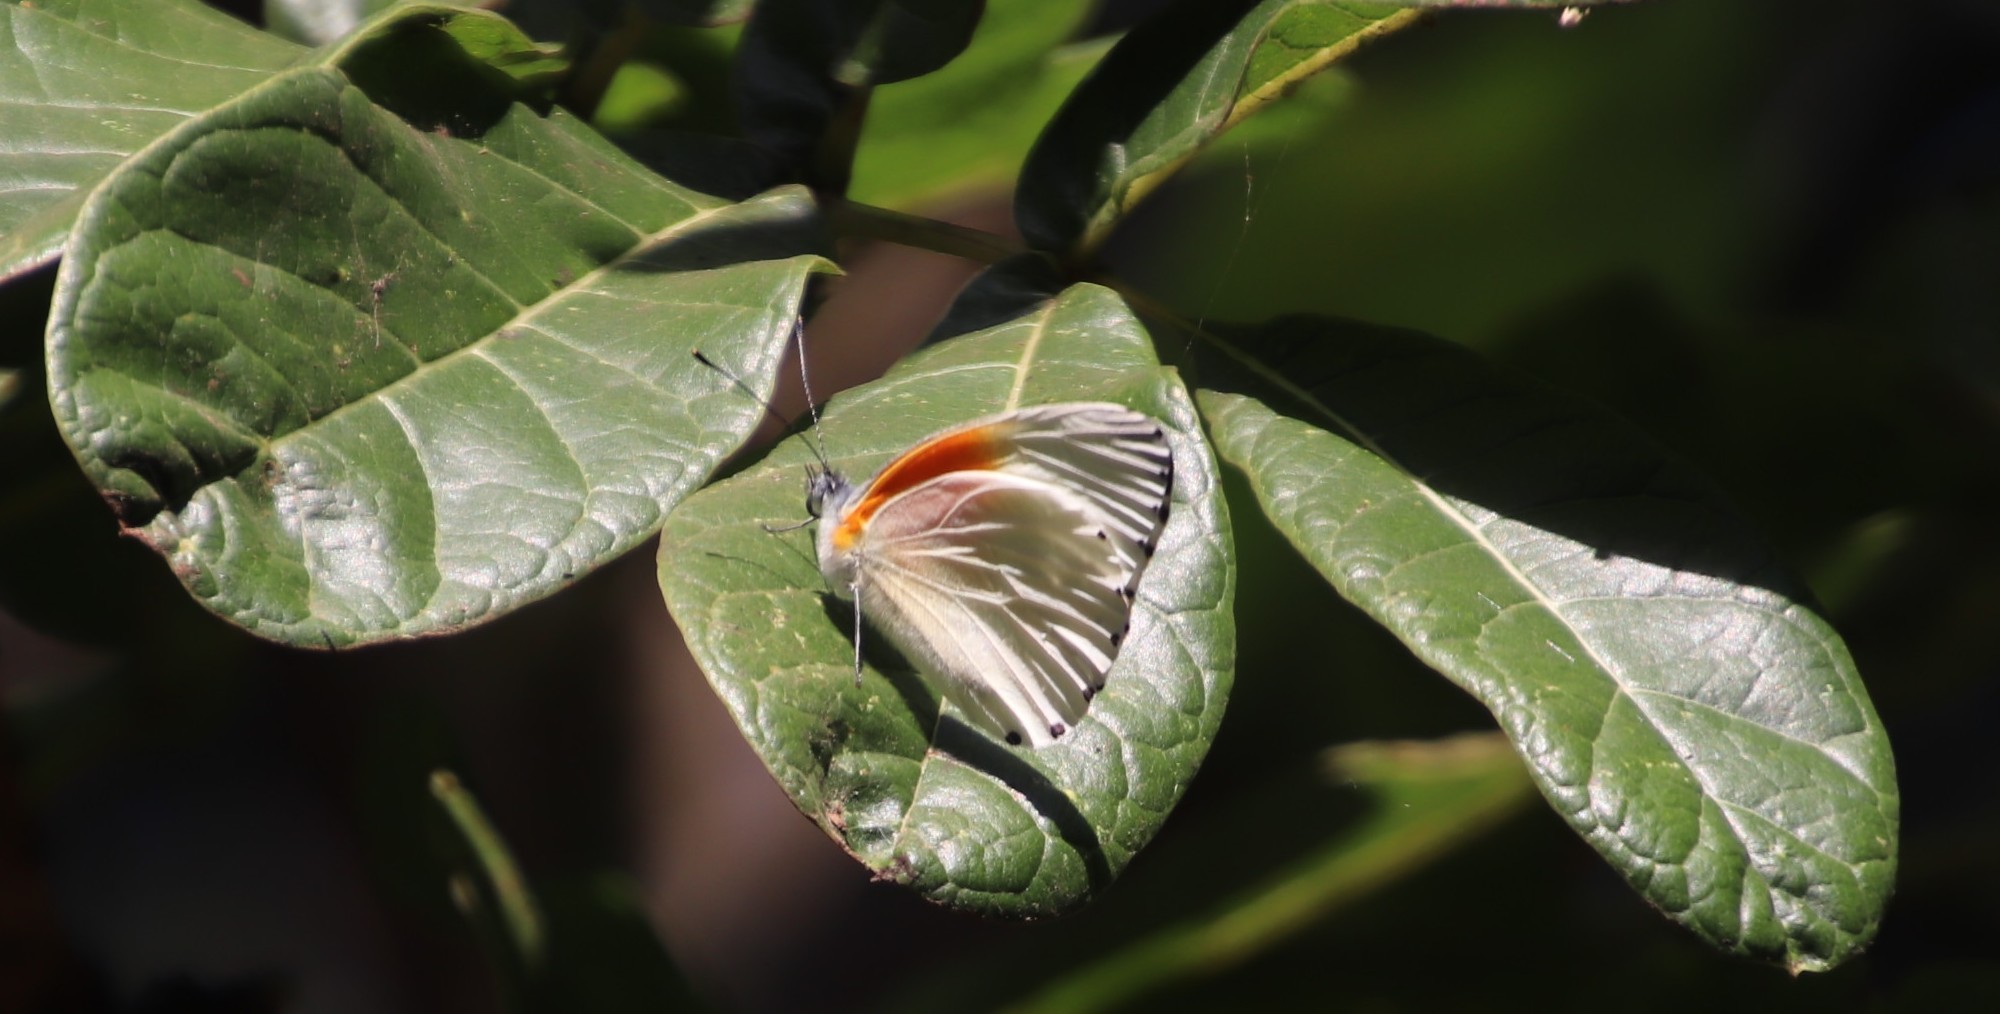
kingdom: Animalia
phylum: Arthropoda
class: Insecta
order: Lepidoptera
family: Pieridae
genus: Mylothris
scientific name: Mylothris rueppellii
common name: Twin dotted border
